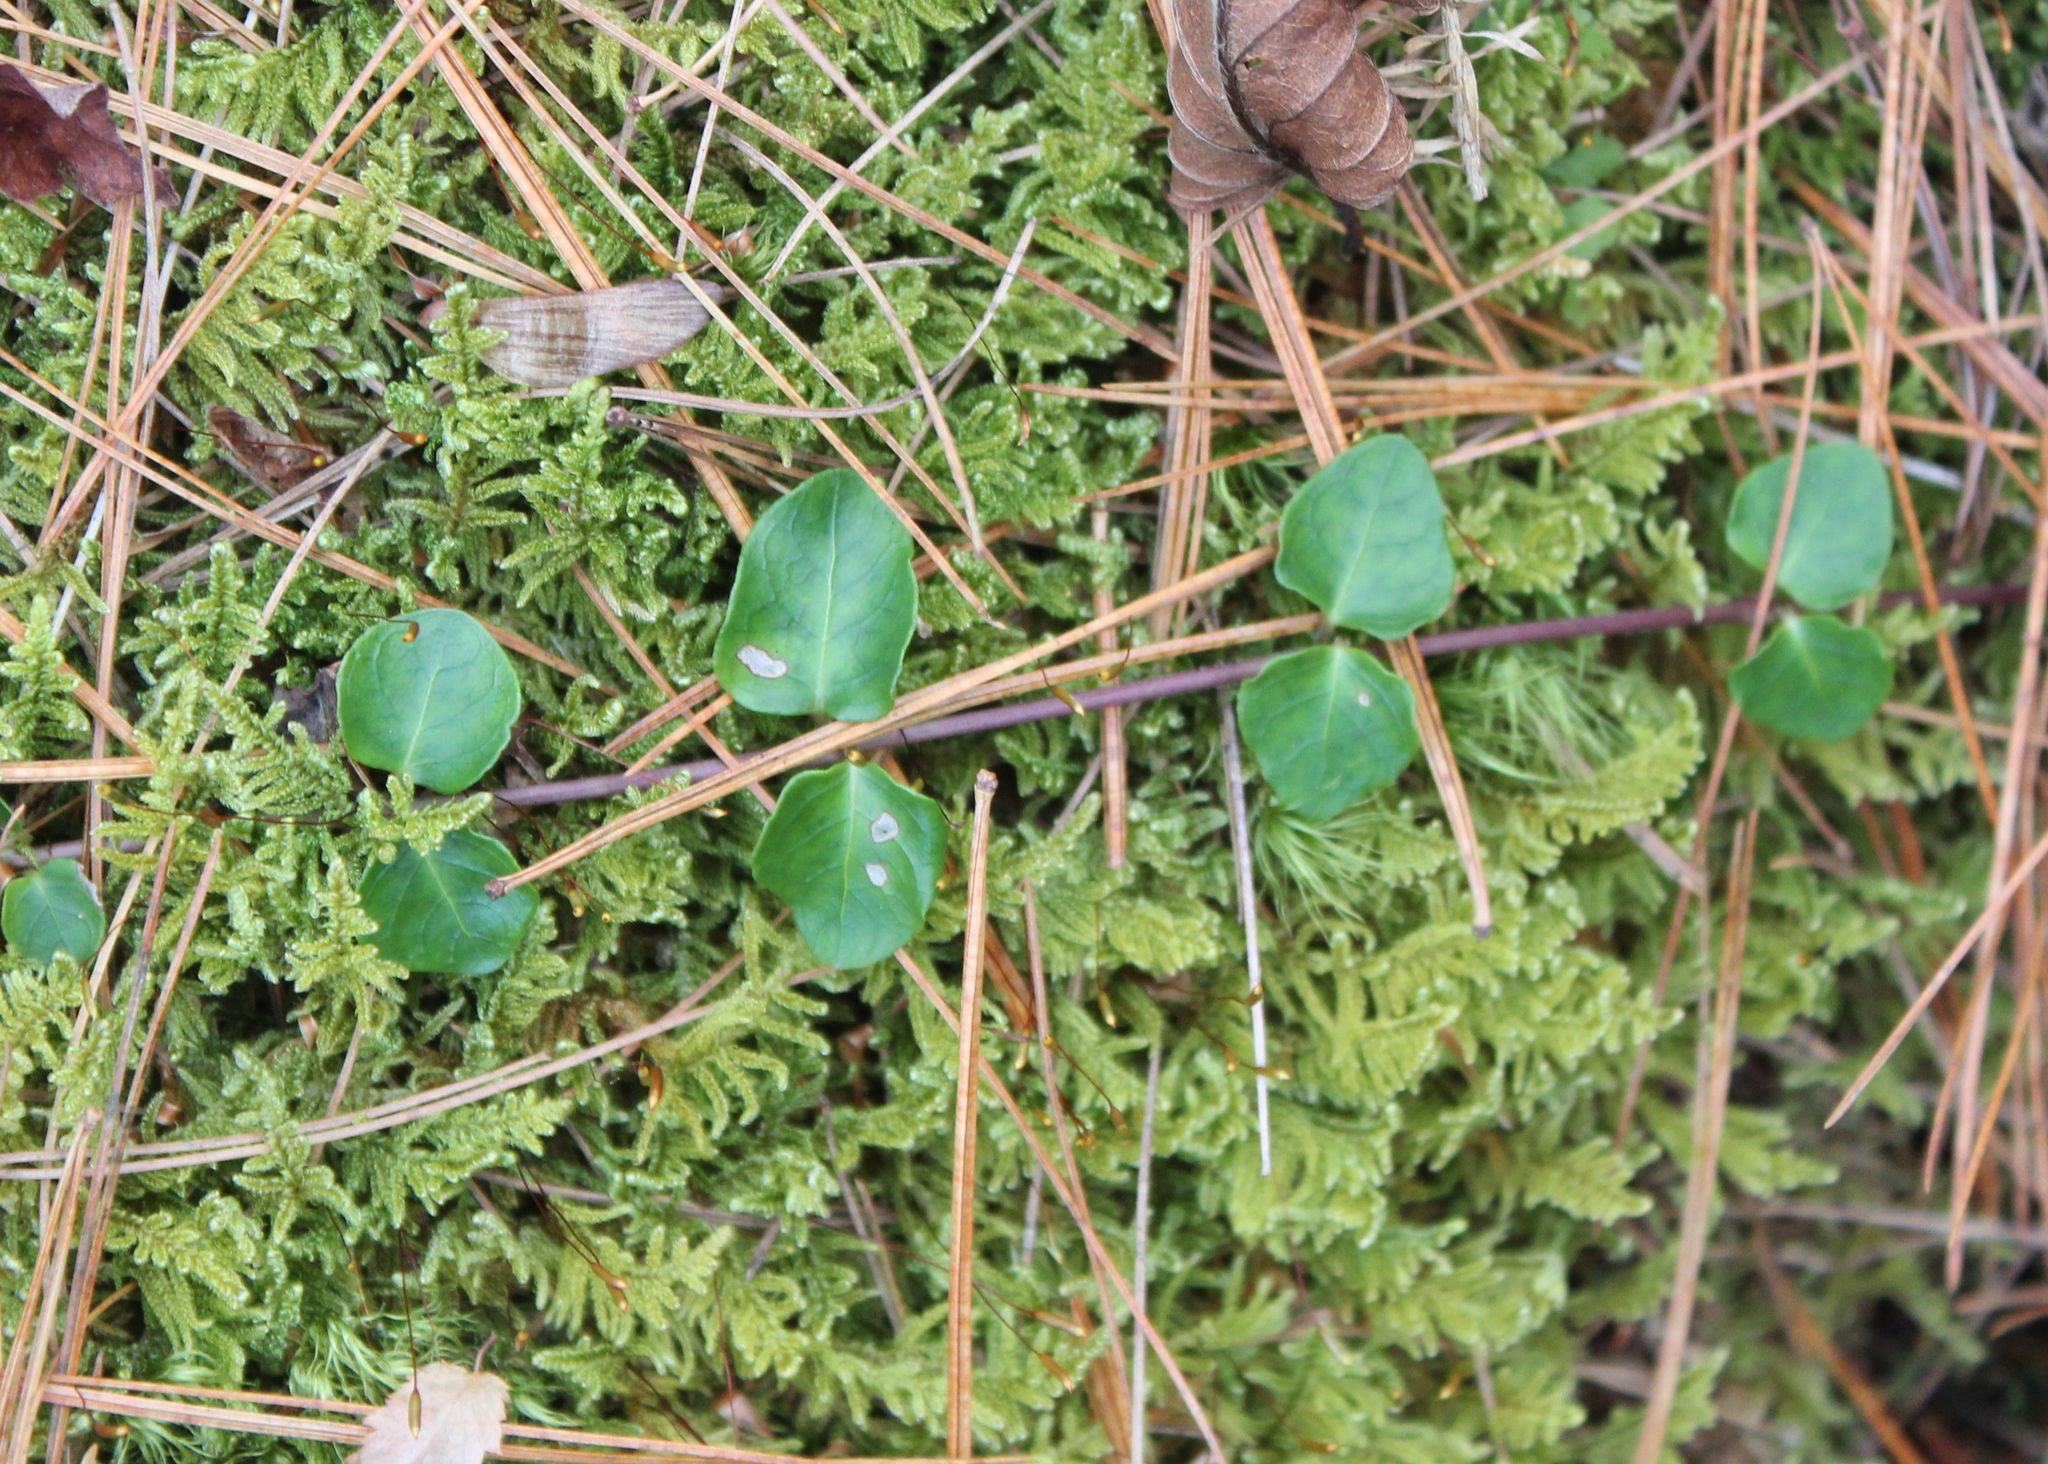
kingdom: Plantae
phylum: Tracheophyta
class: Magnoliopsida
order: Gentianales
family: Rubiaceae
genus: Mitchella
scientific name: Mitchella repens
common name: Partridge-berry
